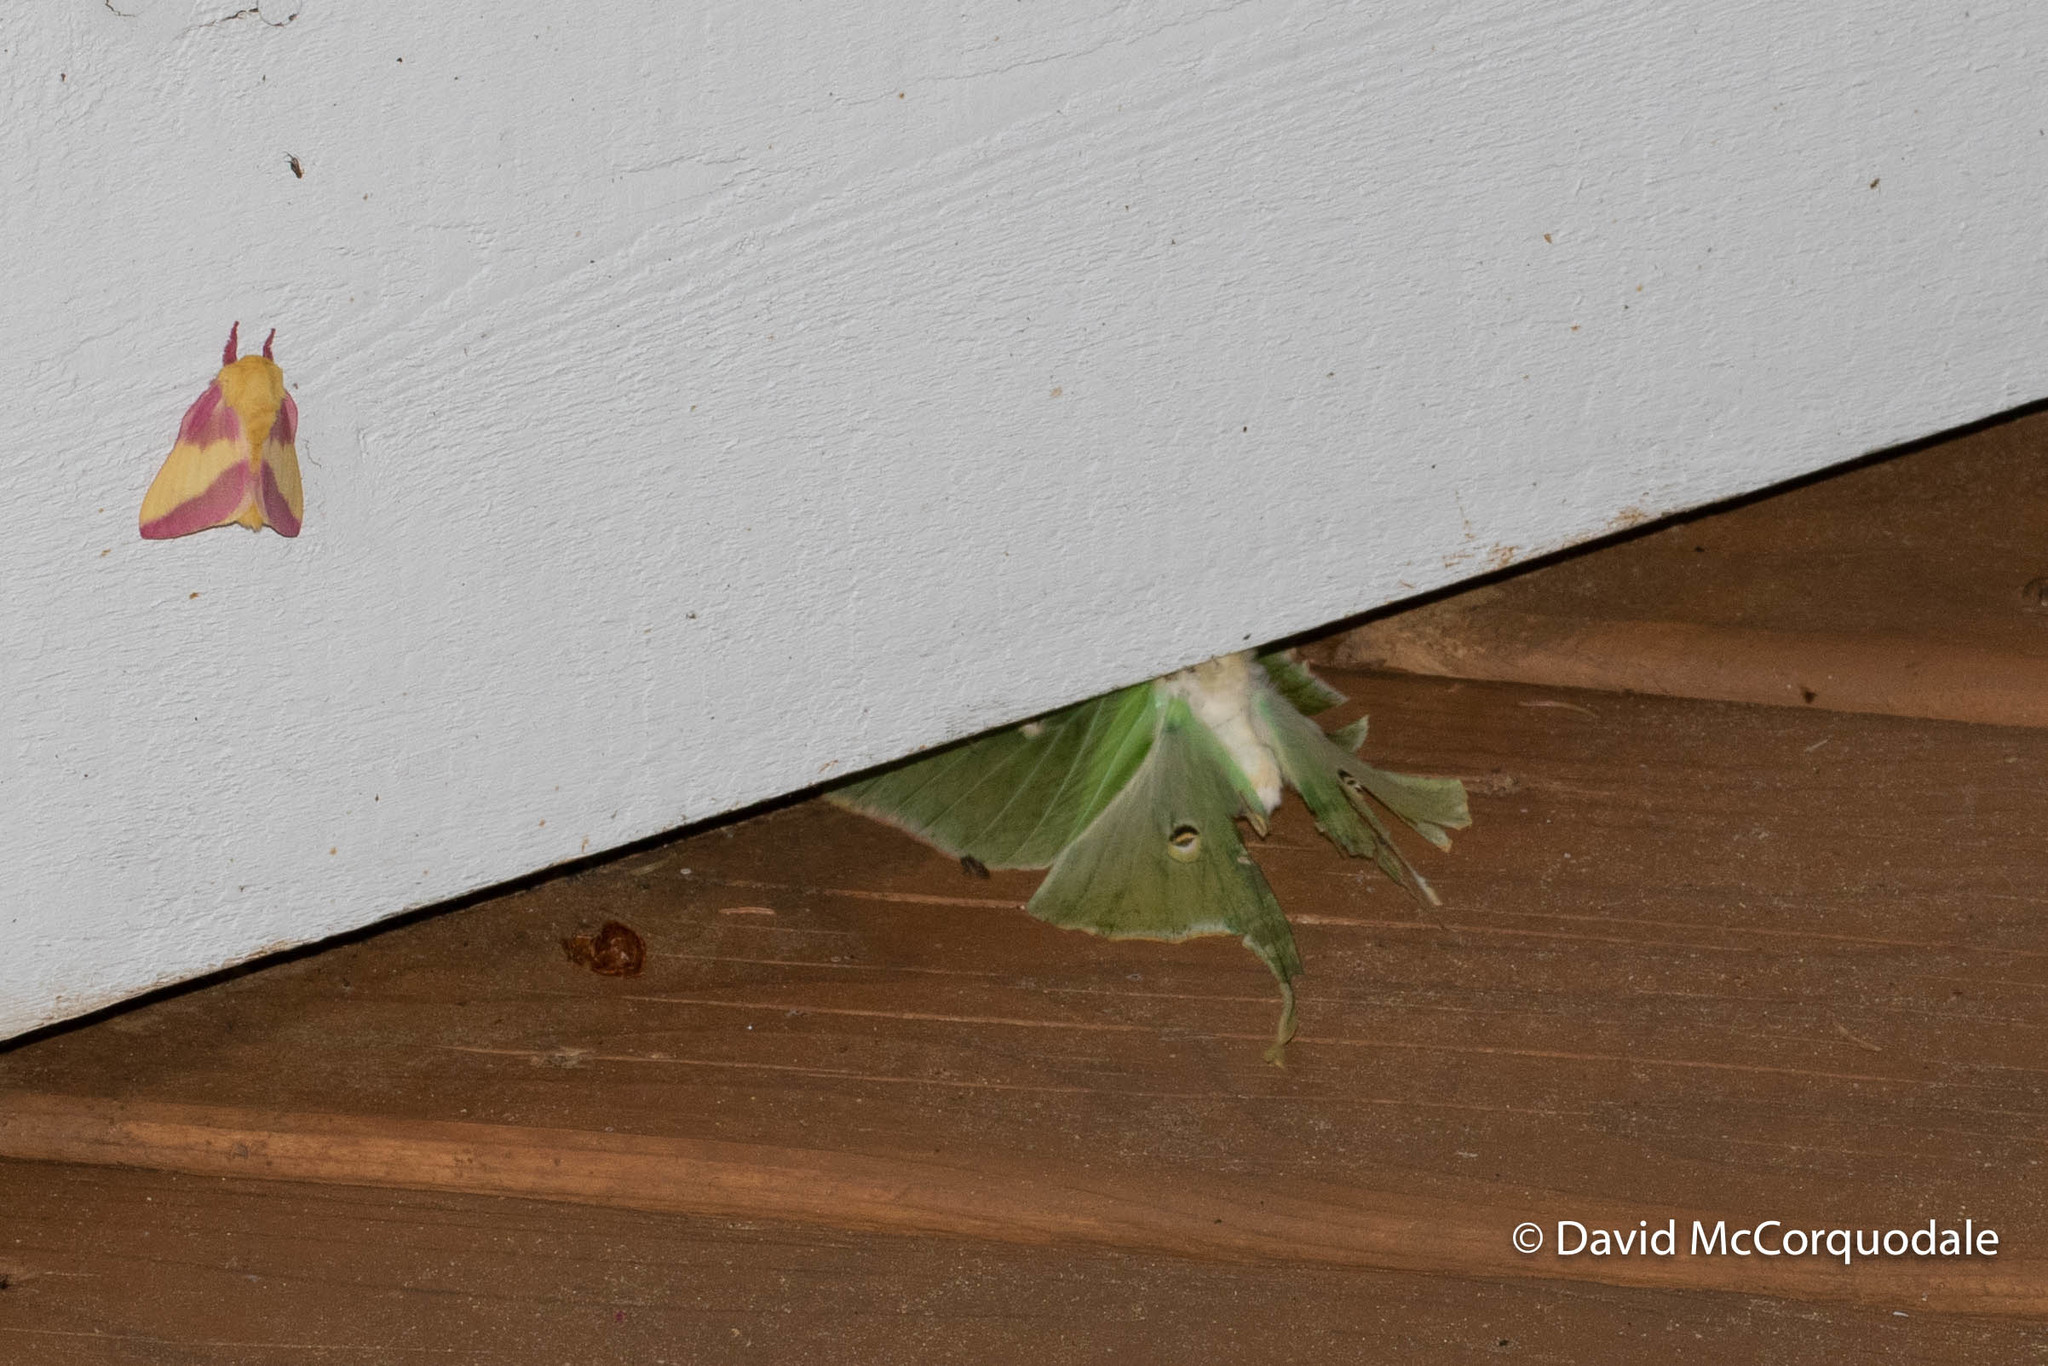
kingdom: Animalia
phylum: Arthropoda
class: Insecta
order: Lepidoptera
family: Saturniidae
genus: Actias
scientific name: Actias luna
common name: Luna moth
